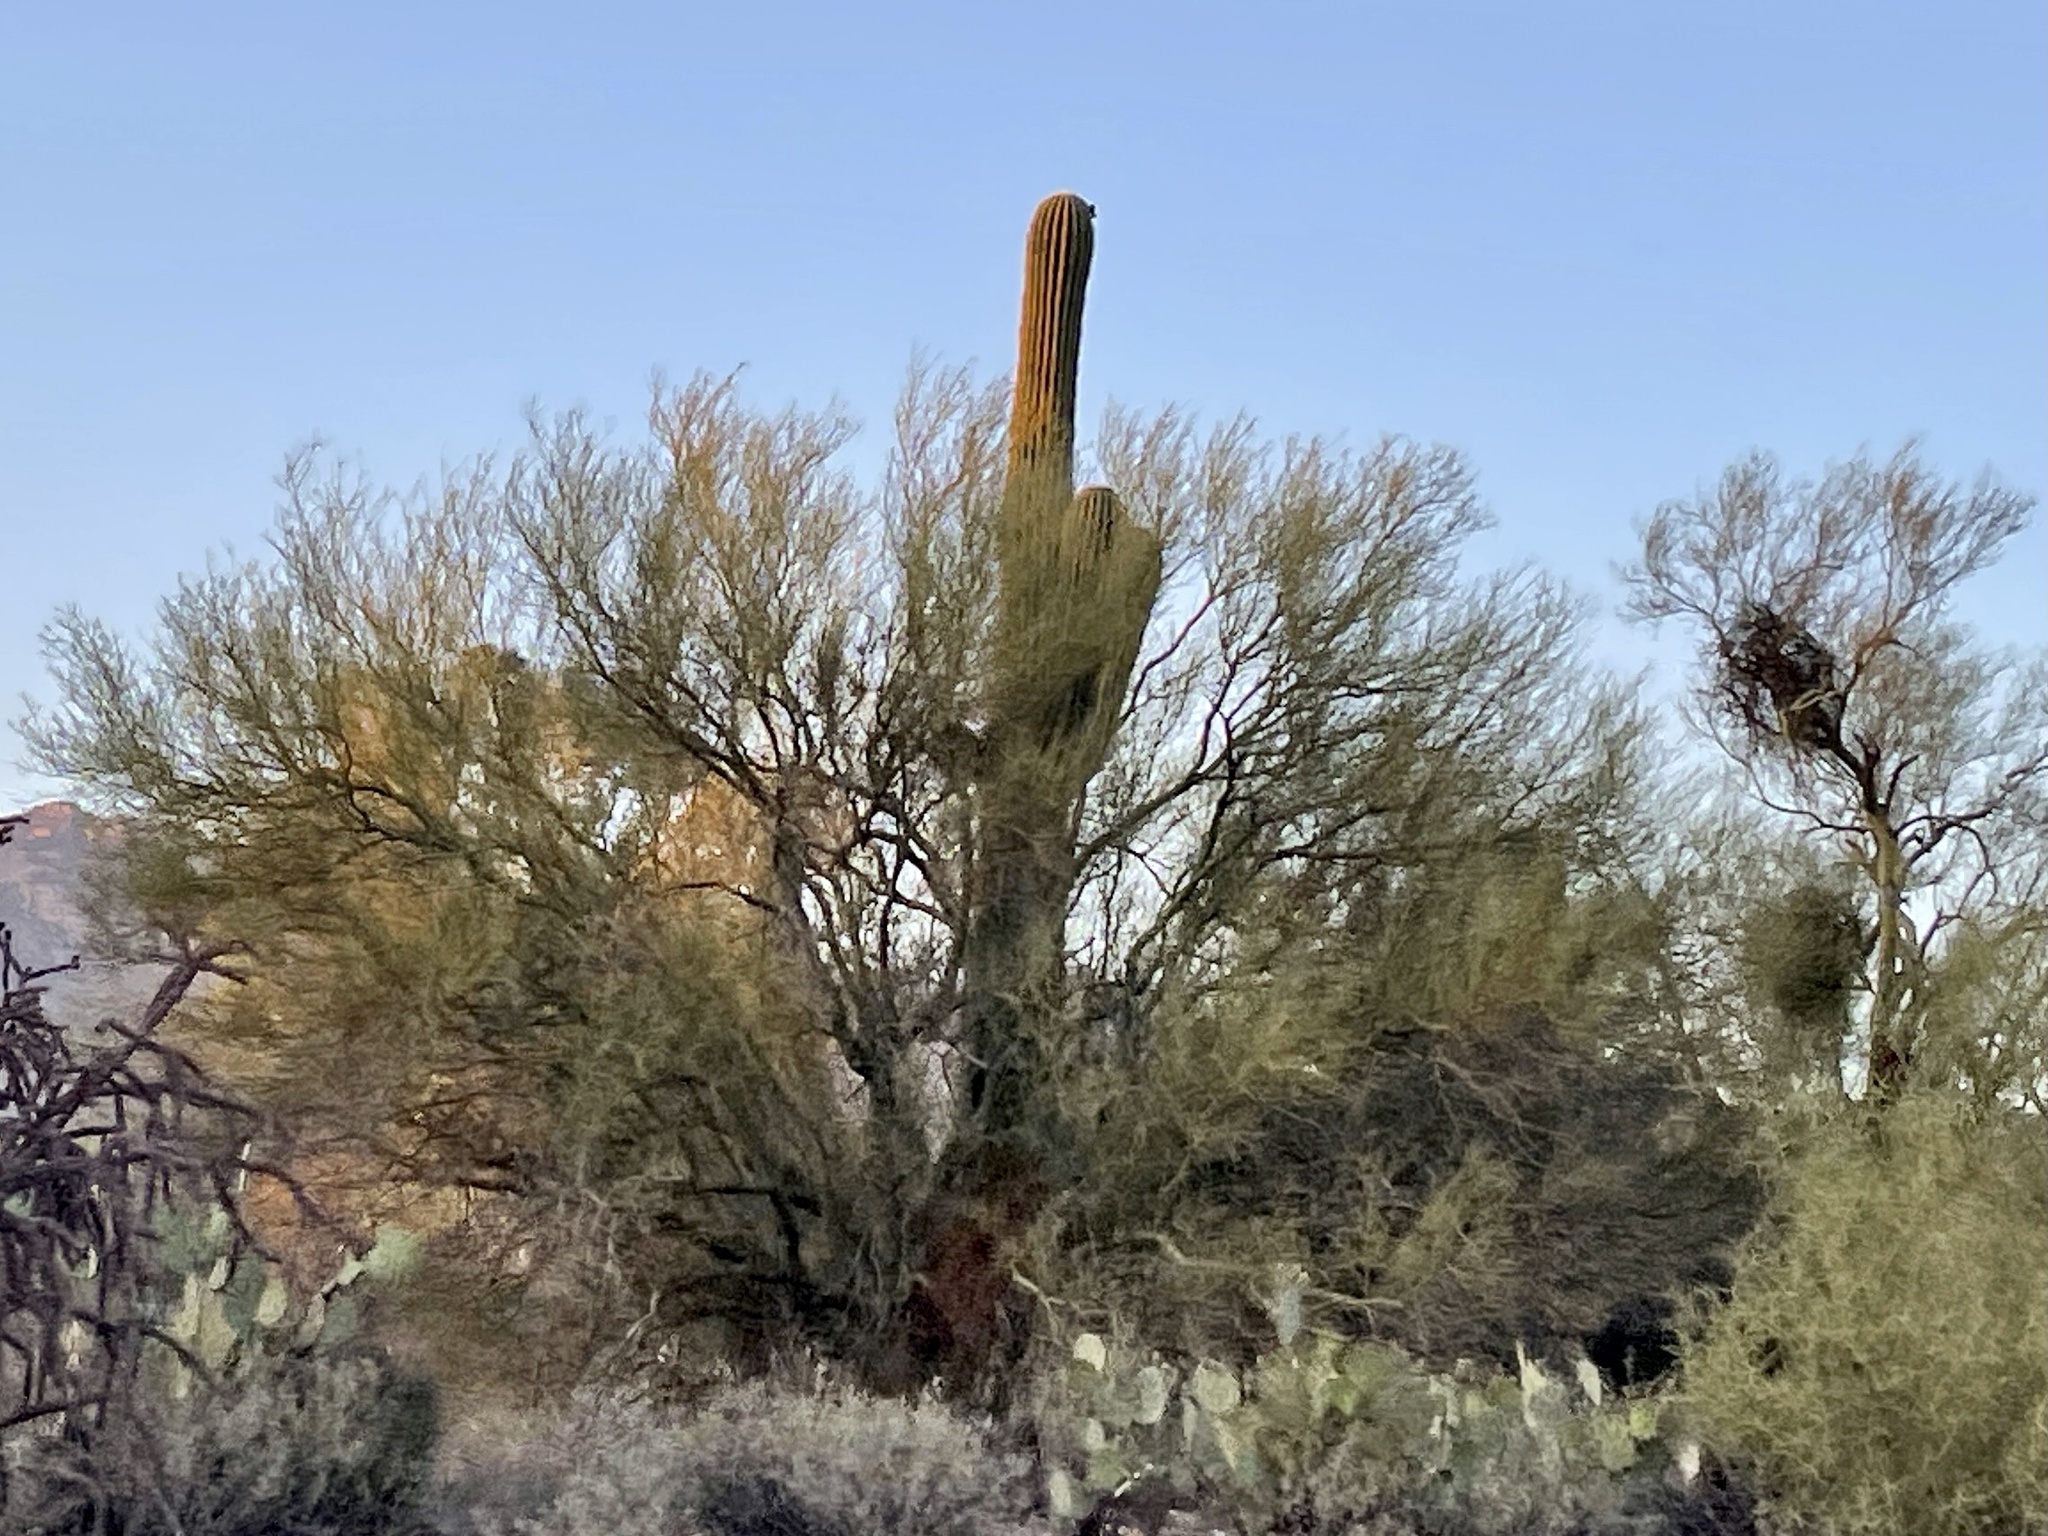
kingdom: Plantae
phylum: Tracheophyta
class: Magnoliopsida
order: Caryophyllales
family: Cactaceae
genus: Carnegiea
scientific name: Carnegiea gigantea
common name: Saguaro
